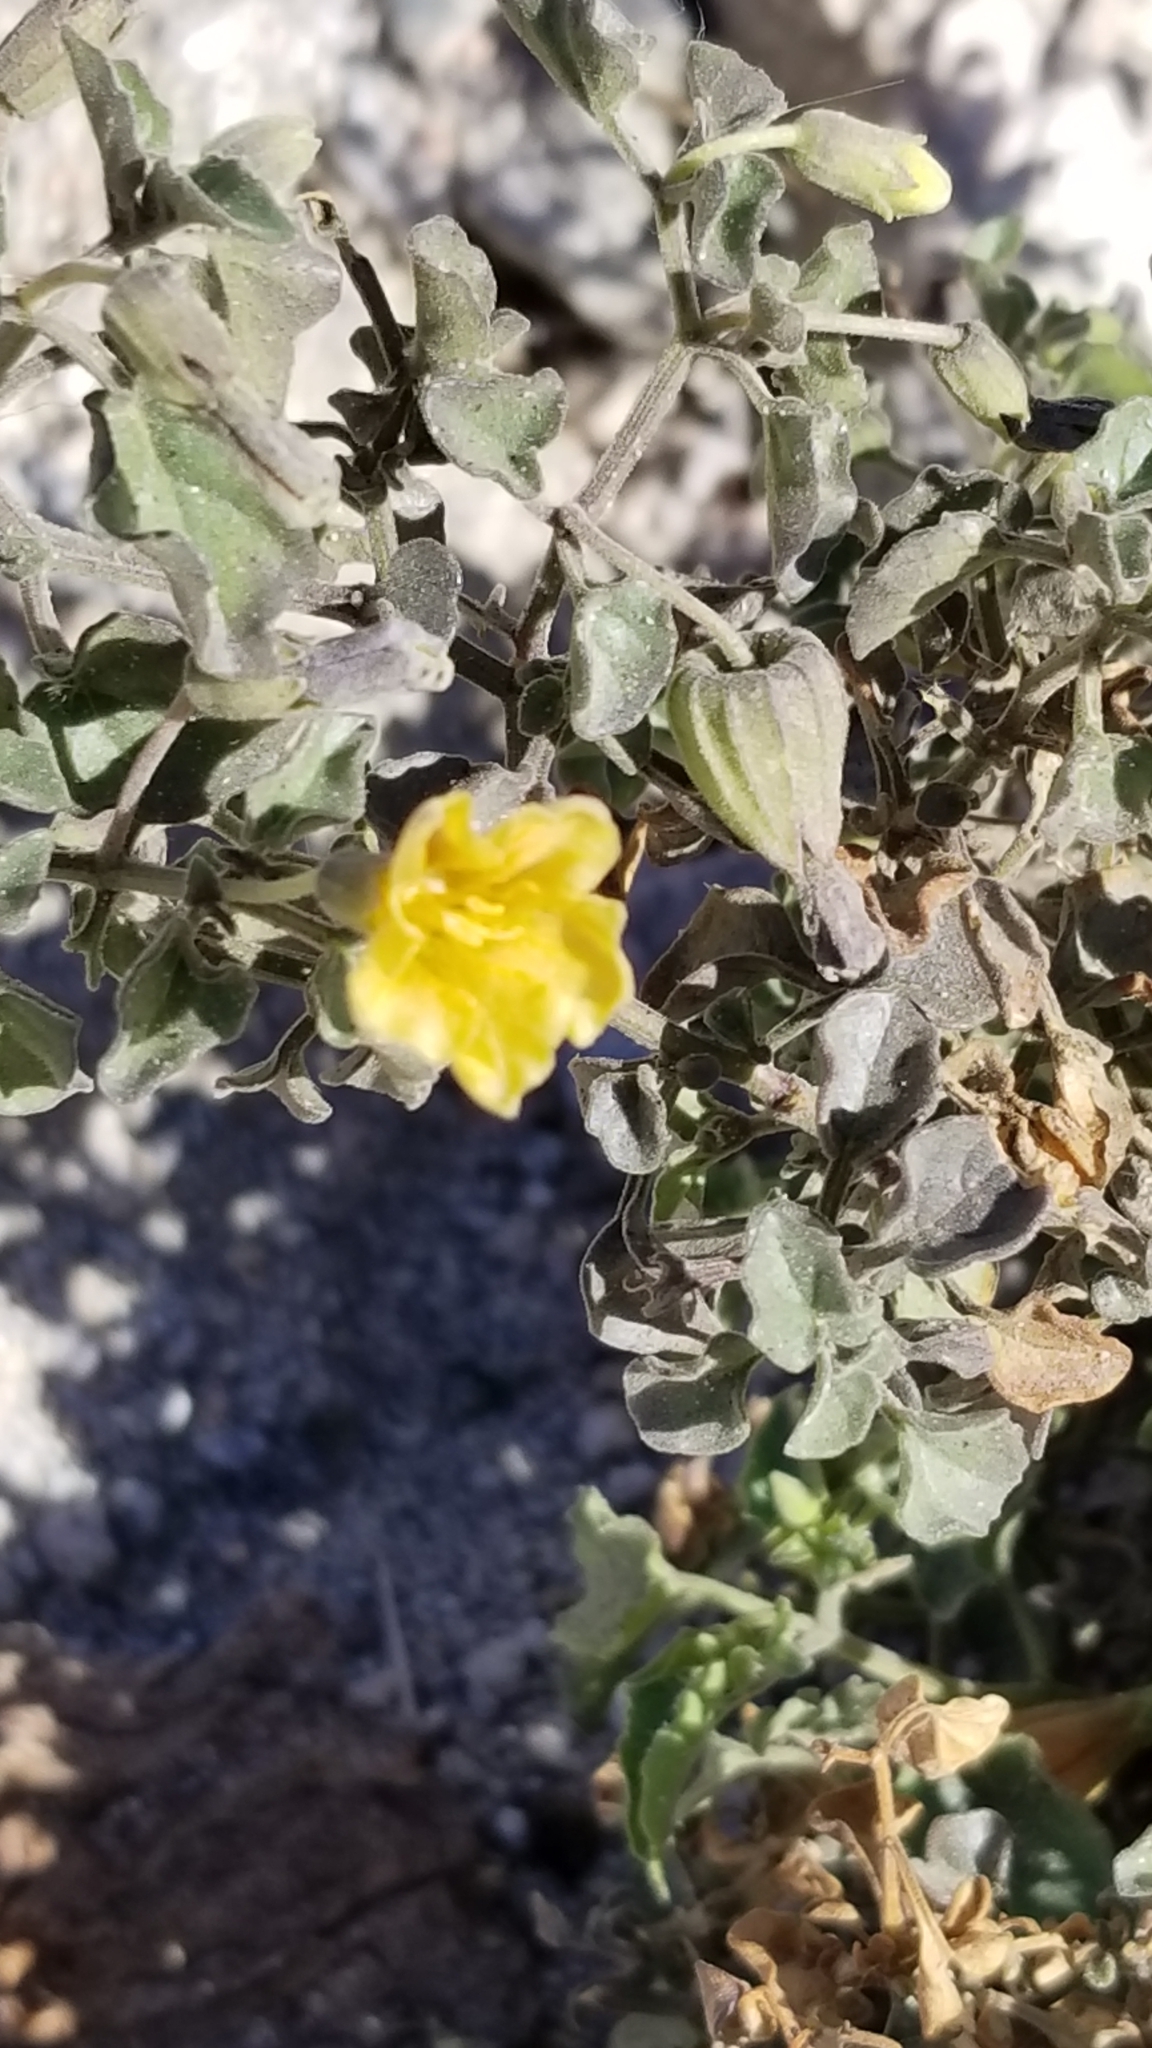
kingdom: Plantae
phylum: Tracheophyta
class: Magnoliopsida
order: Solanales
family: Solanaceae
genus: Physalis
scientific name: Physalis crassifolia
